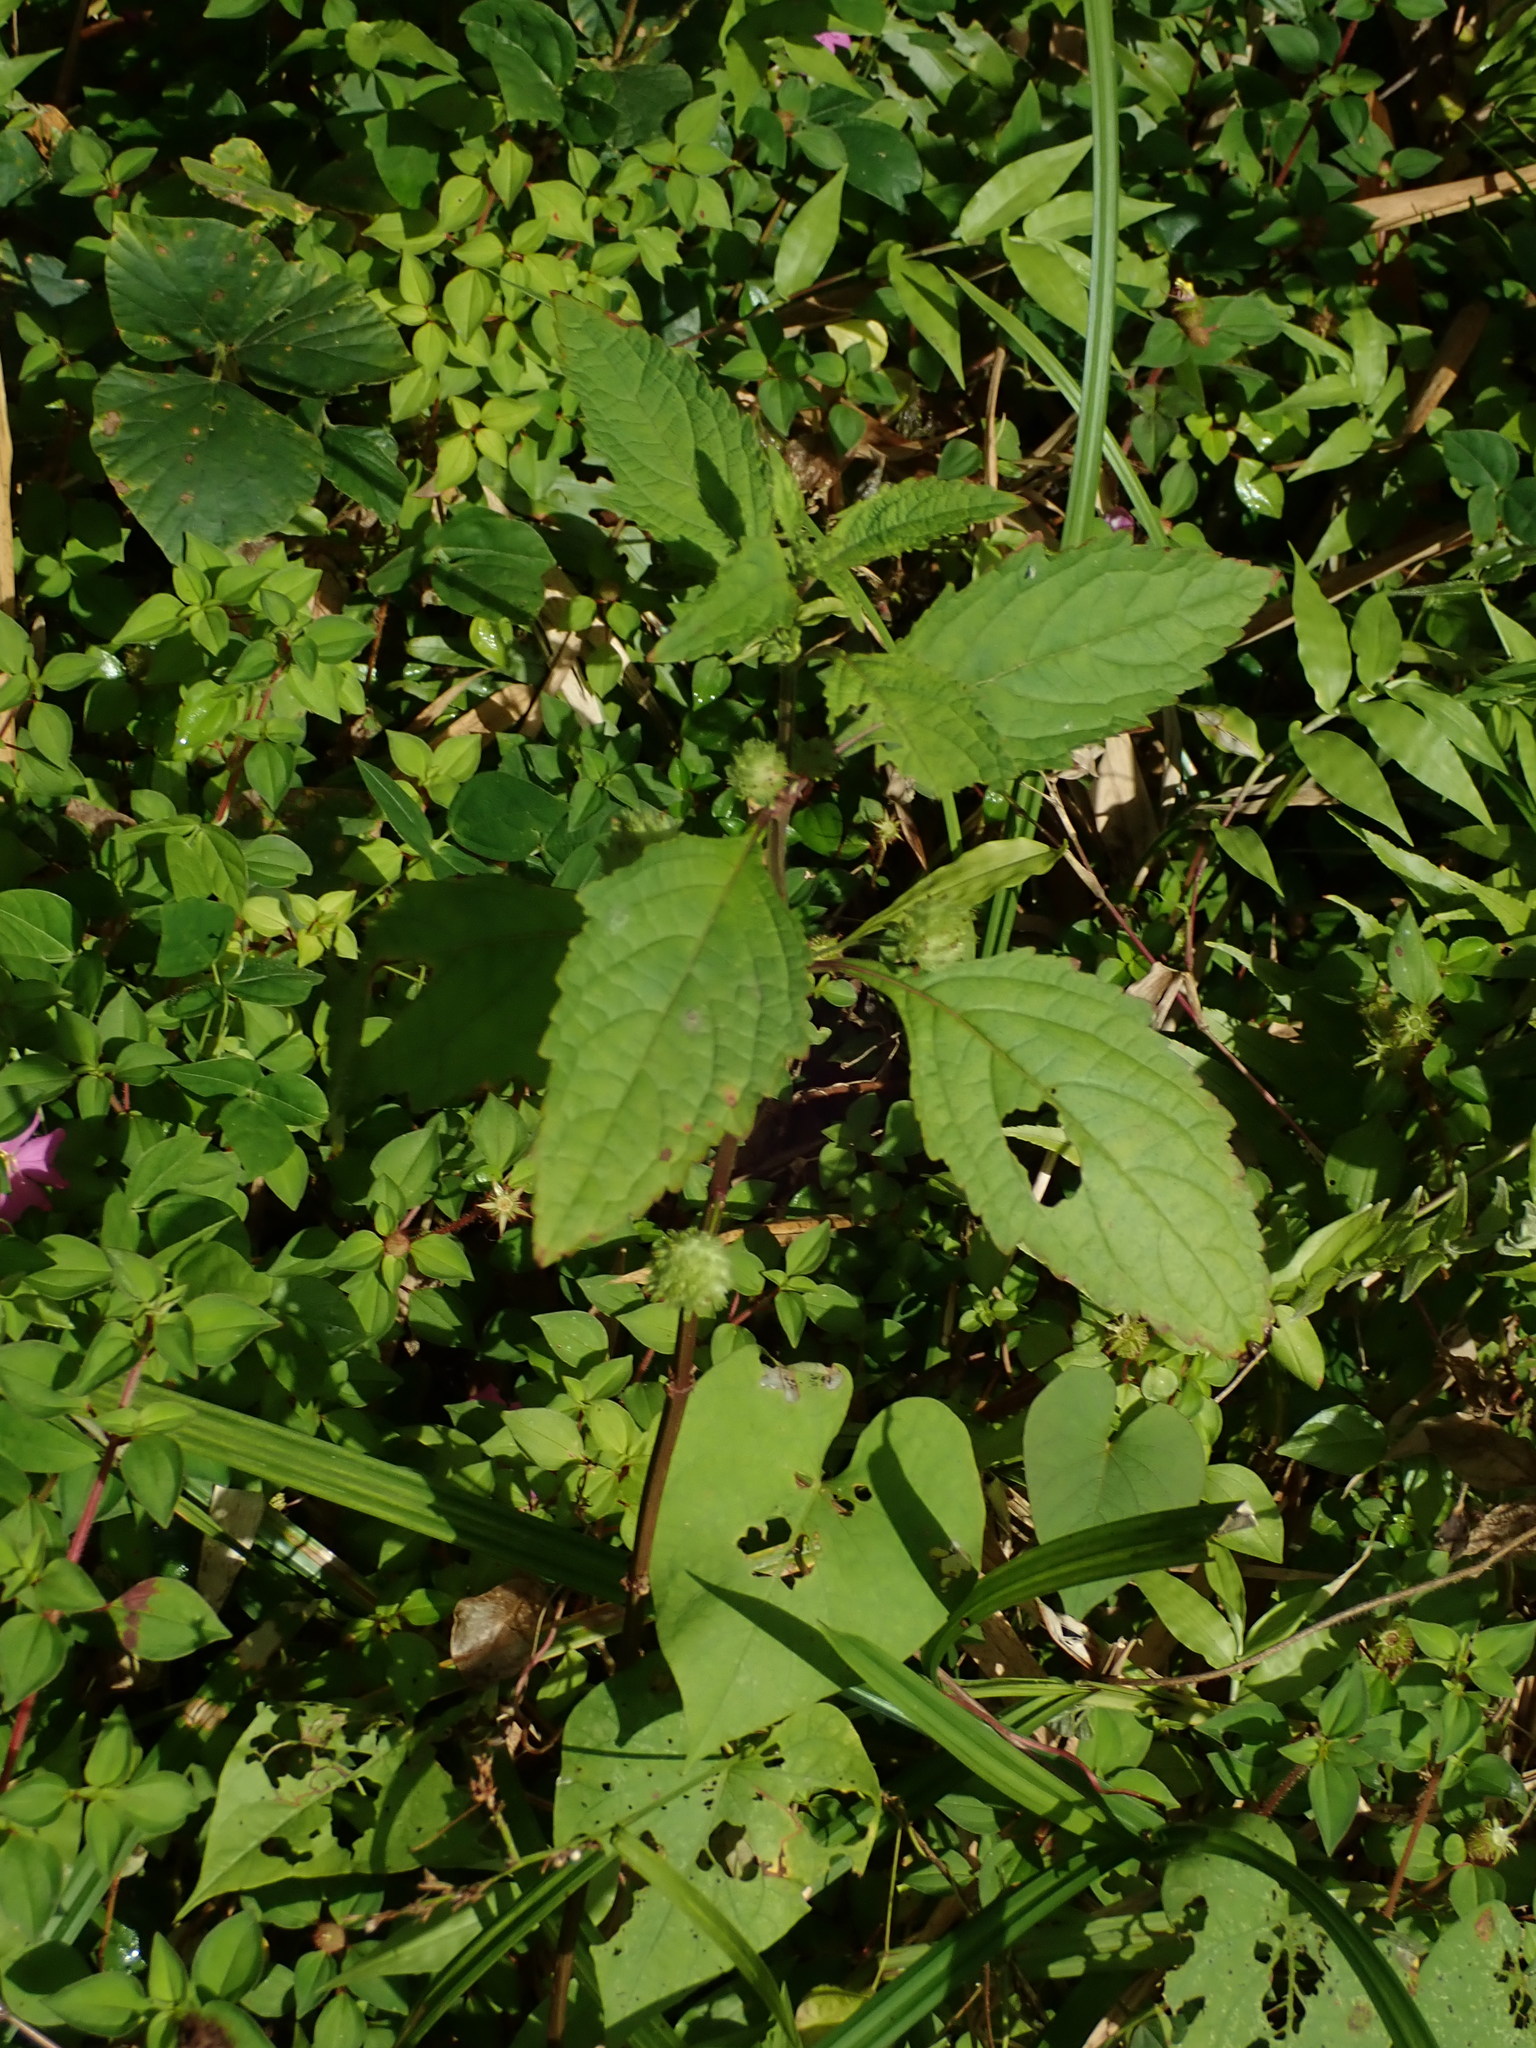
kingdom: Plantae
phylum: Tracheophyta
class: Magnoliopsida
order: Lamiales
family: Lamiaceae
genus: Hyptis
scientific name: Hyptis capitata
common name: False ironwort
